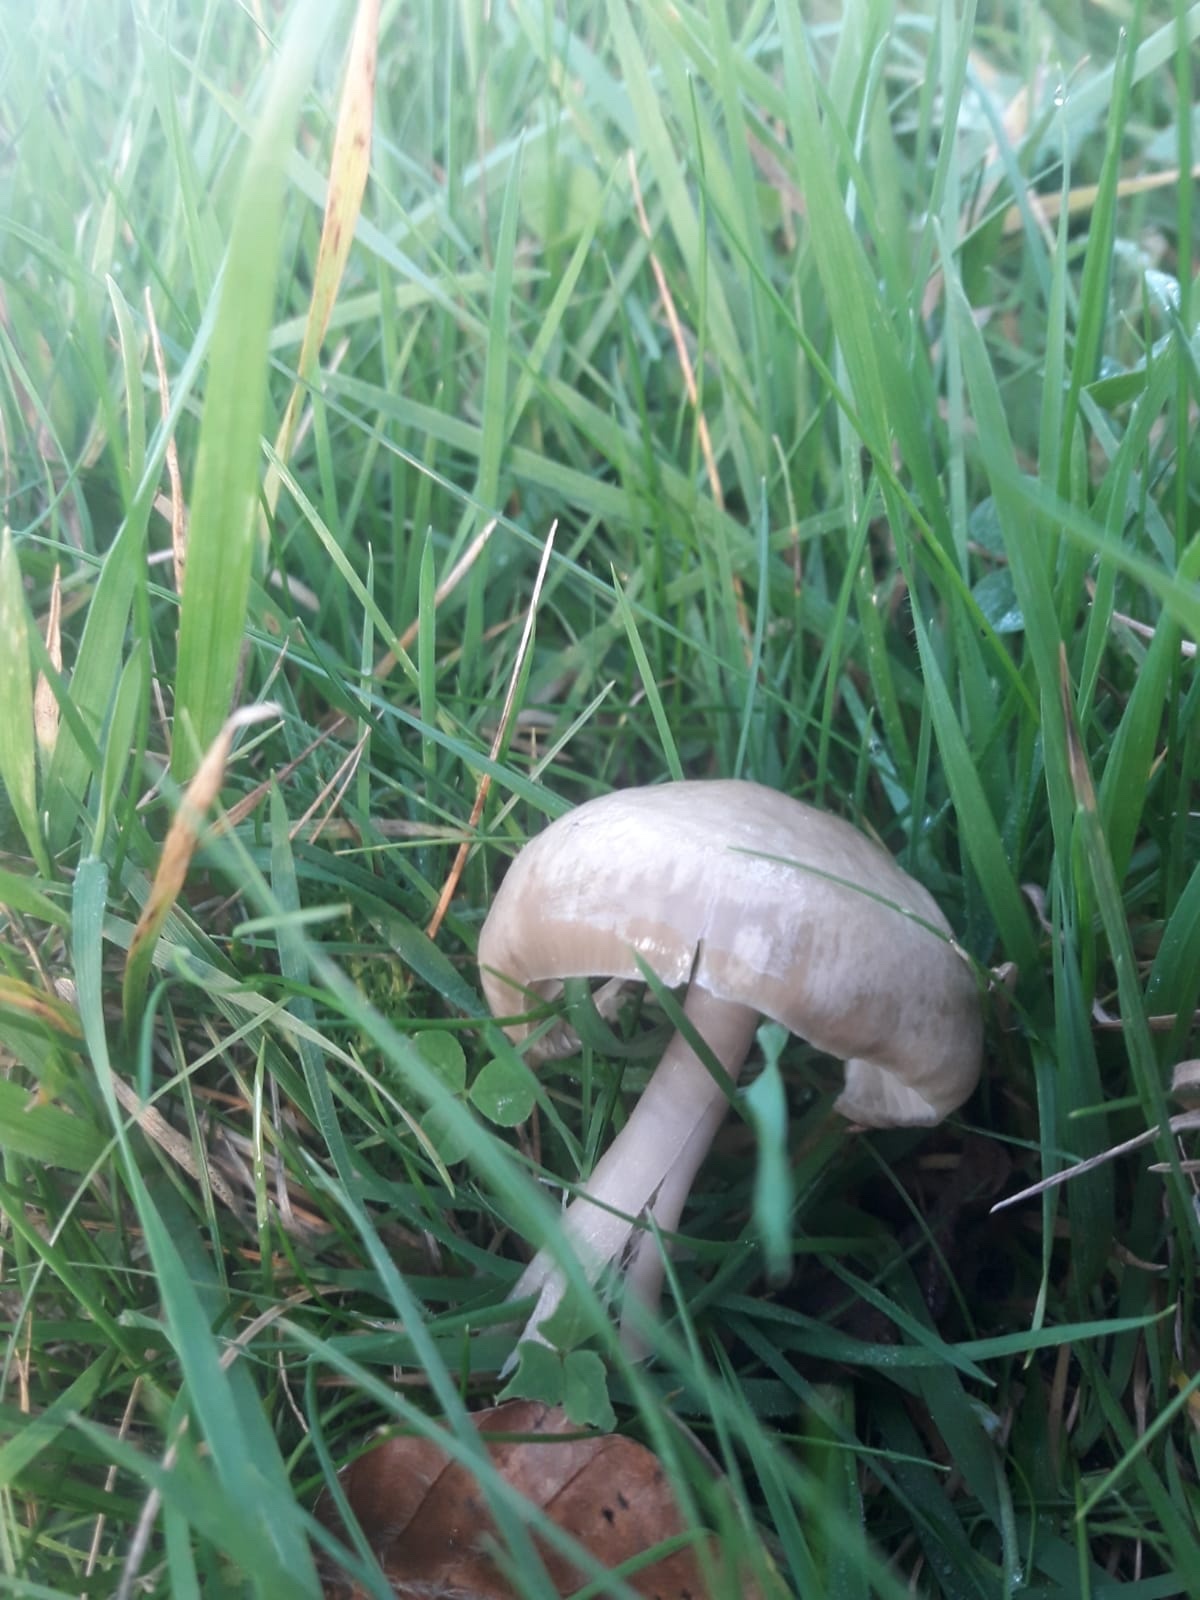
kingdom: Fungi
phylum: Basidiomycota
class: Agaricomycetes
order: Agaricales
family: Hygrophoraceae
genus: Gliophorus
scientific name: Gliophorus irrigatus
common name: Slimy waxcap
